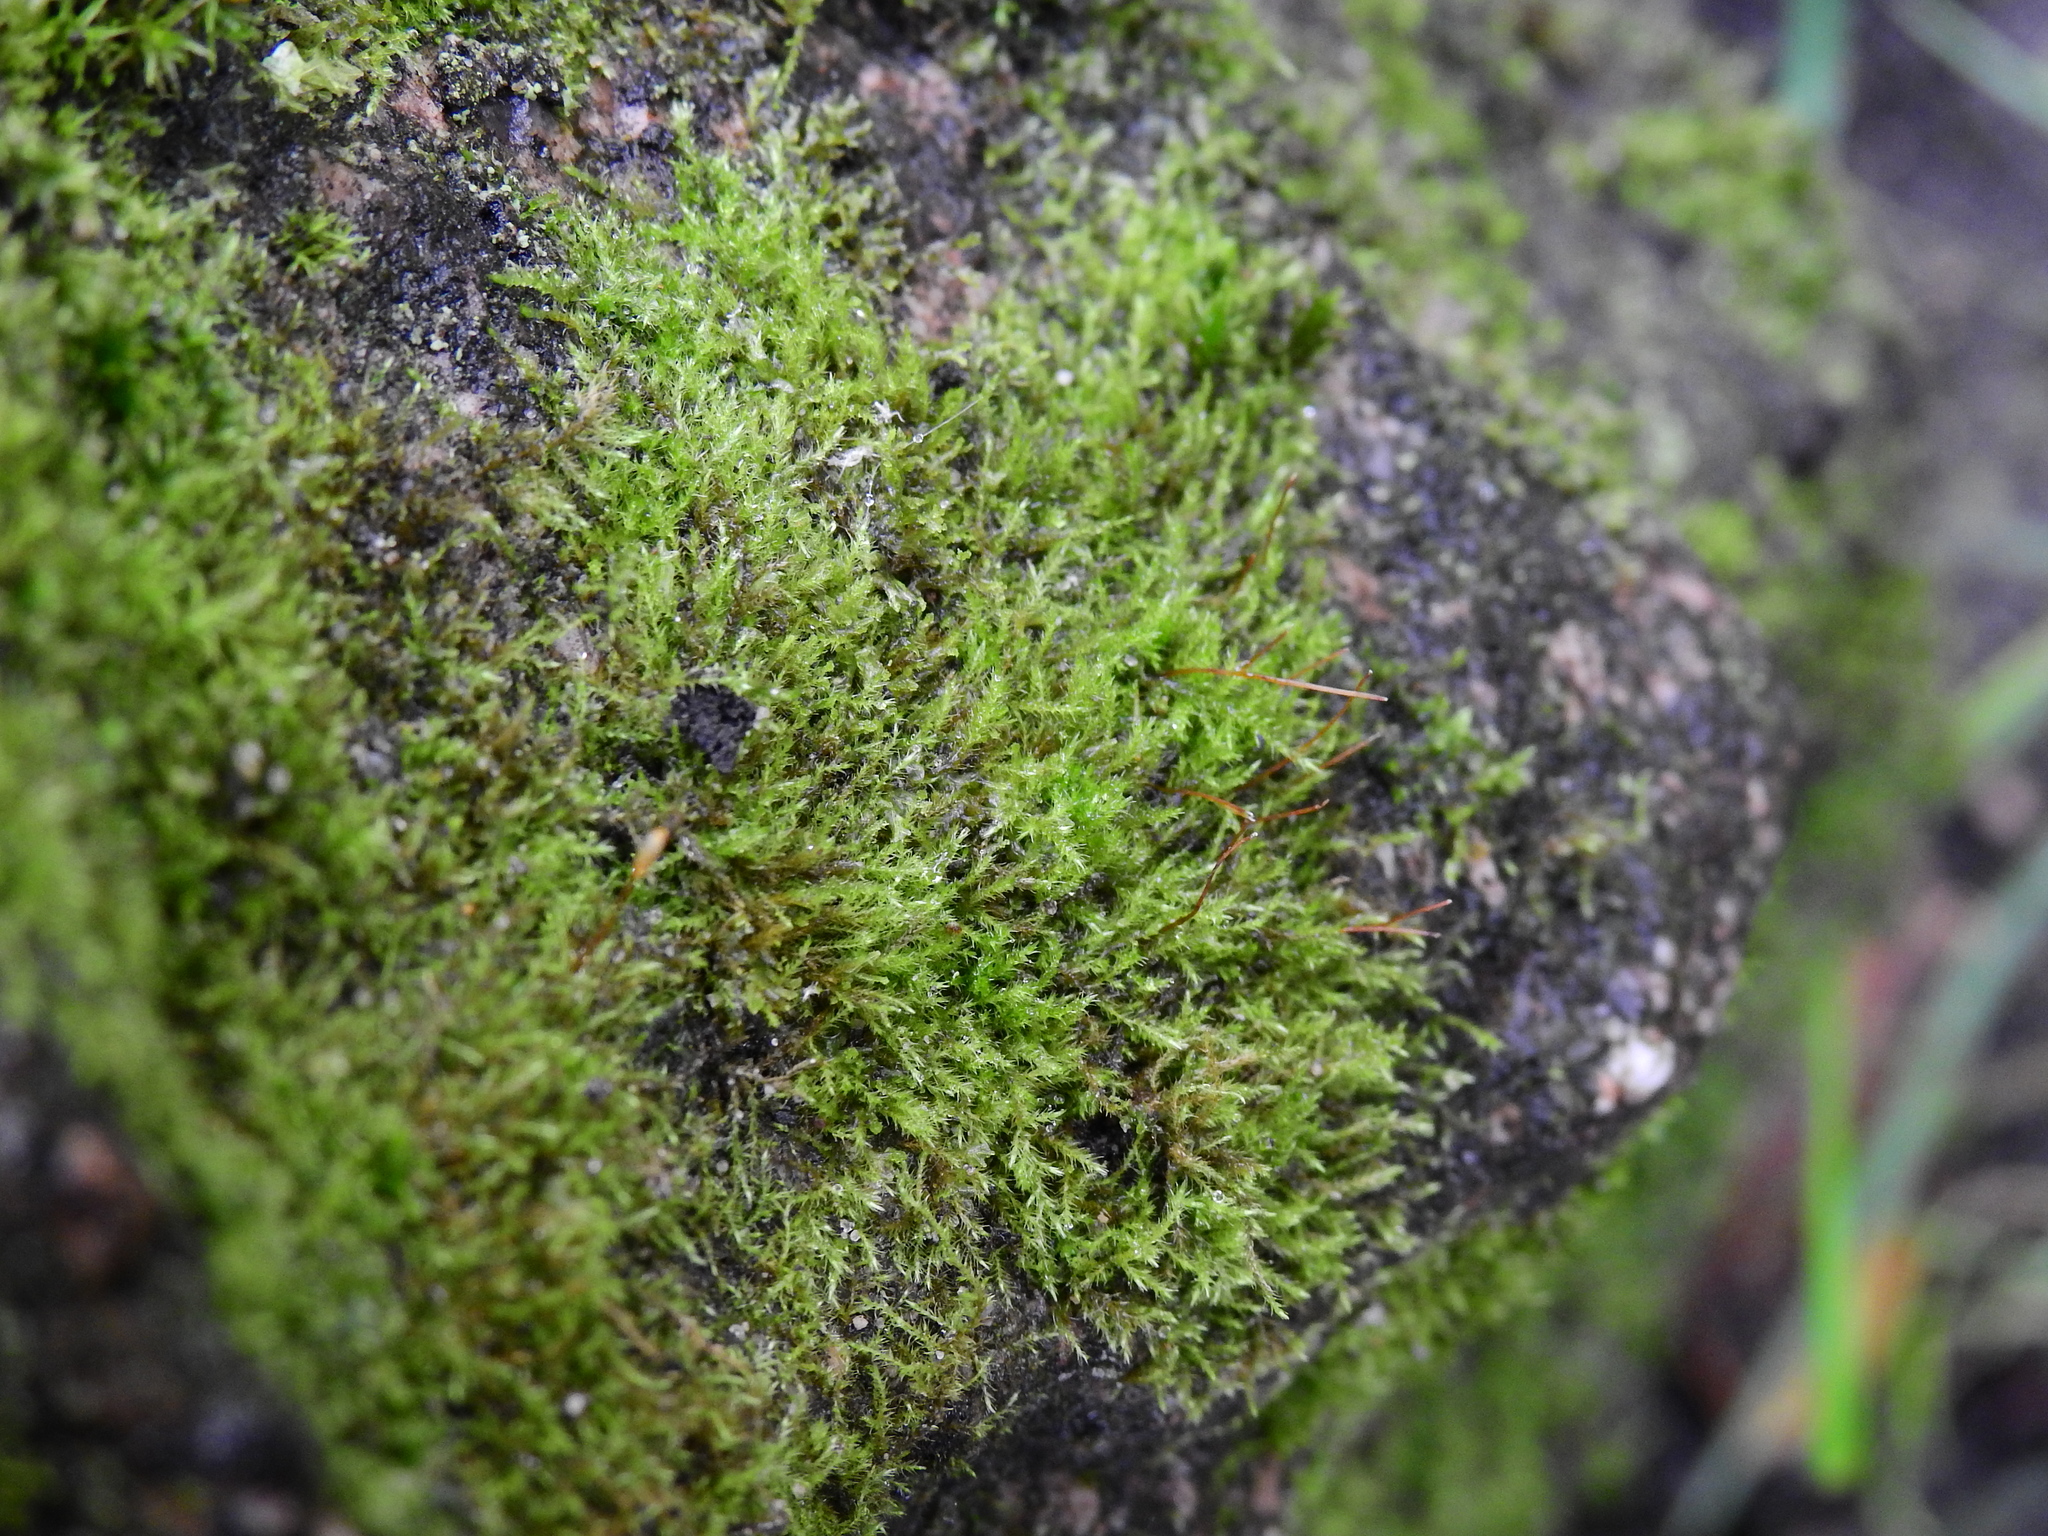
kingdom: Plantae
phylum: Bryophyta
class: Bryopsida
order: Hypnales
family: Amblystegiaceae
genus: Amblystegium
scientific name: Amblystegium serpens
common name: Jurkatzka's feather moss
